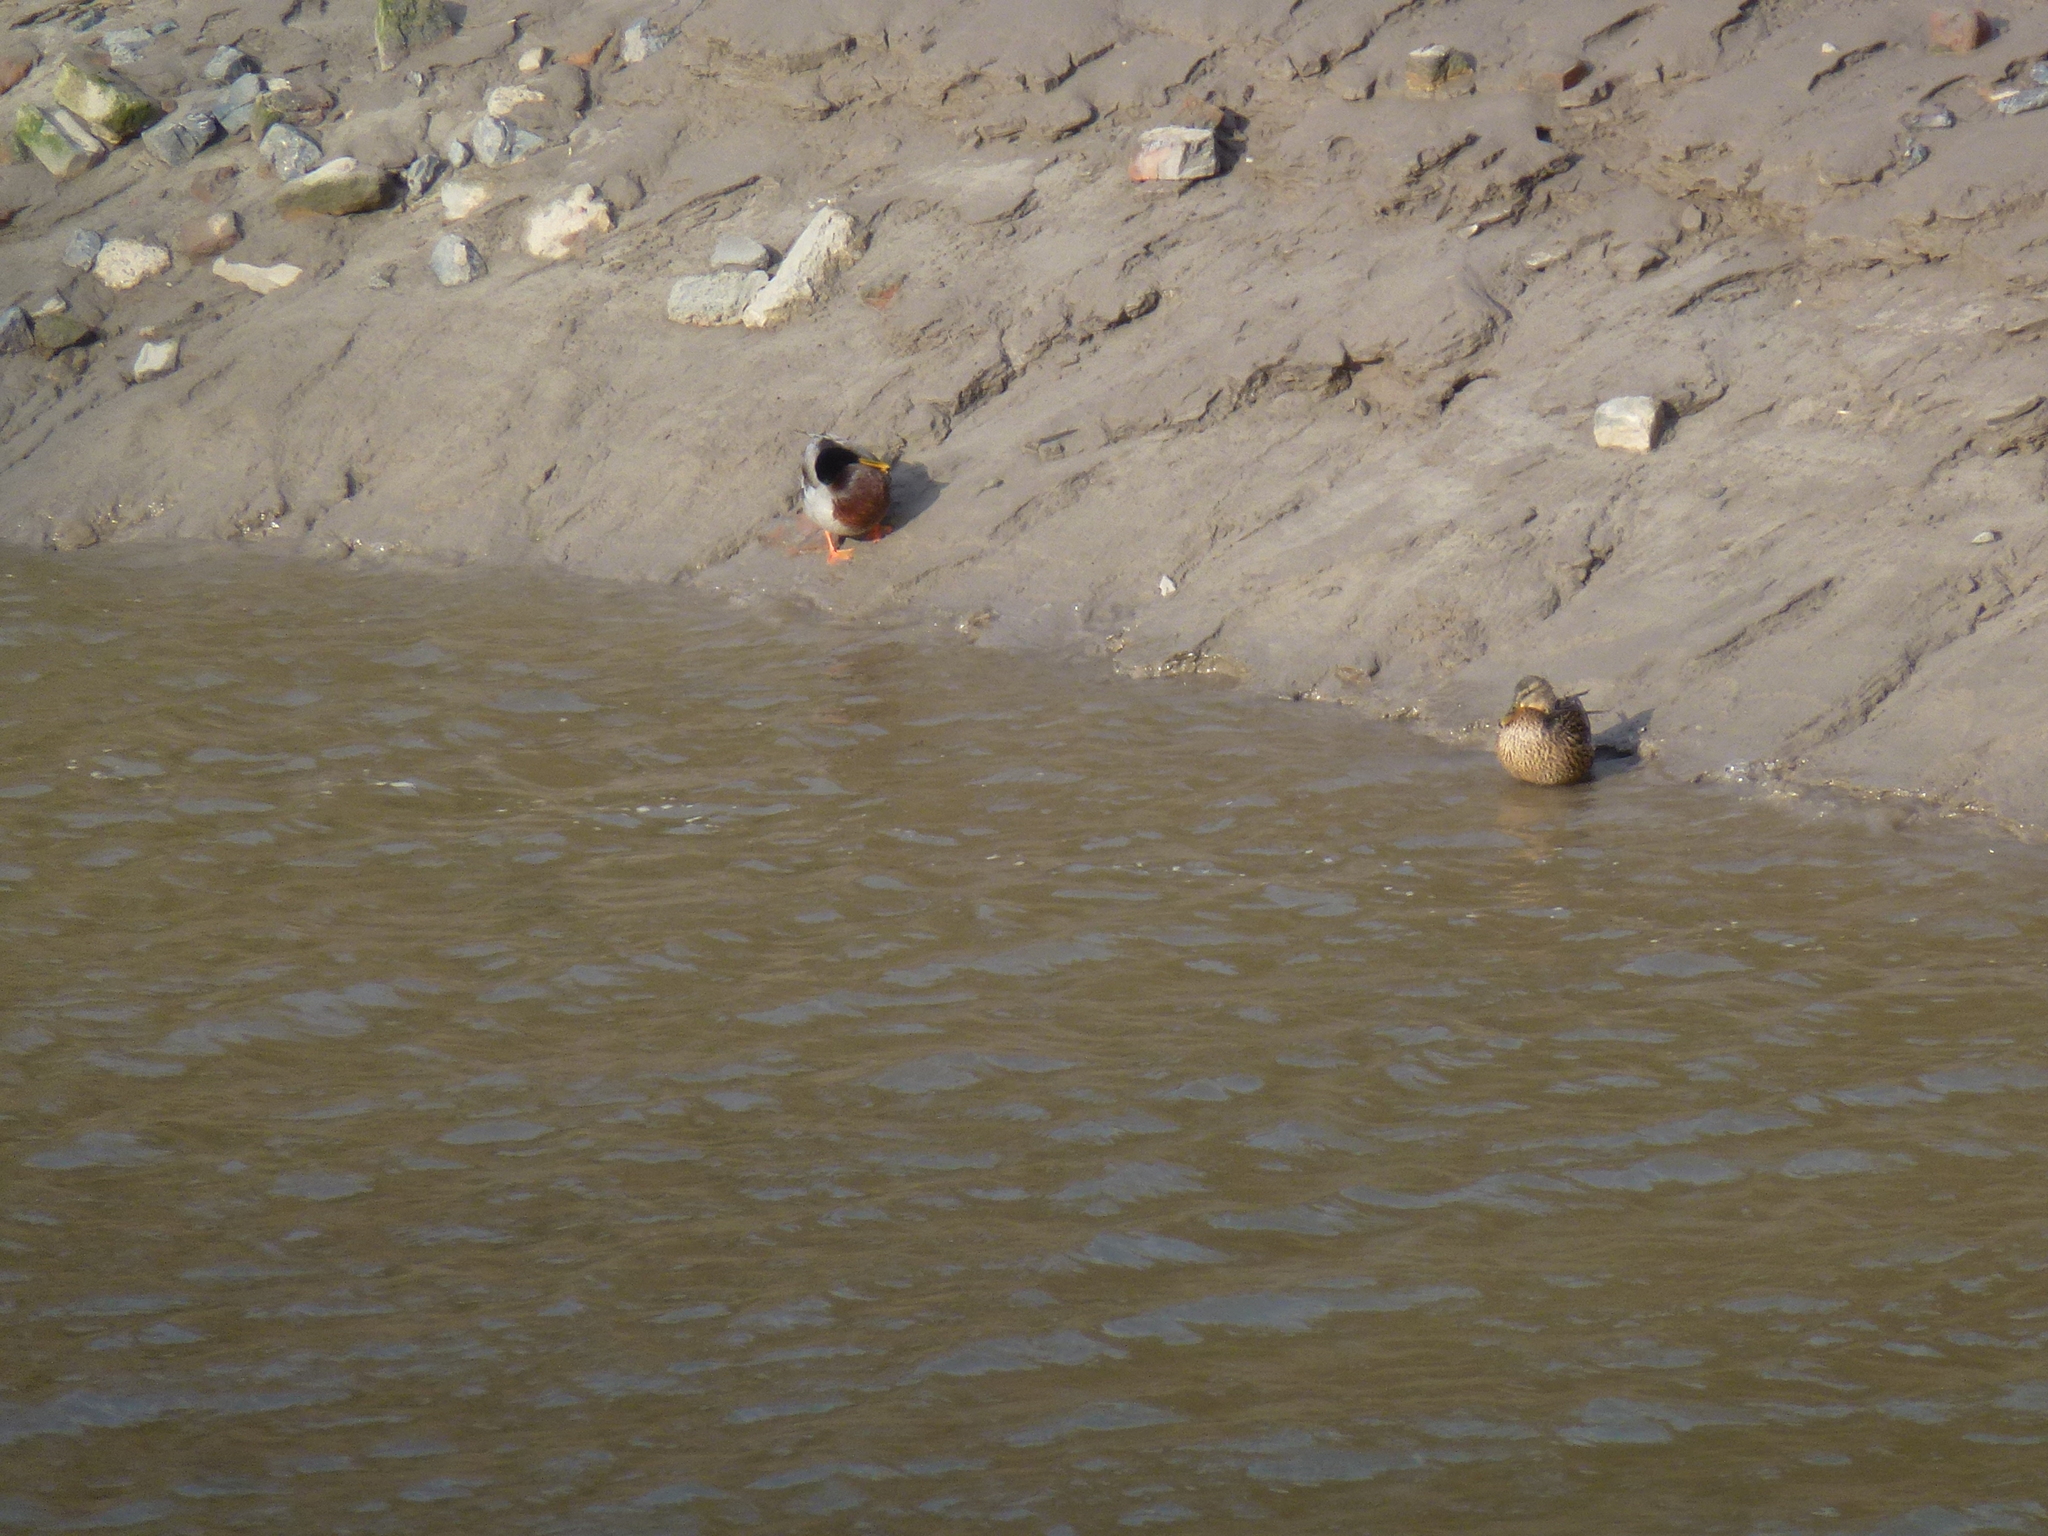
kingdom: Animalia
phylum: Chordata
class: Aves
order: Anseriformes
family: Anatidae
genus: Anas
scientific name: Anas platyrhynchos
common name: Mallard
